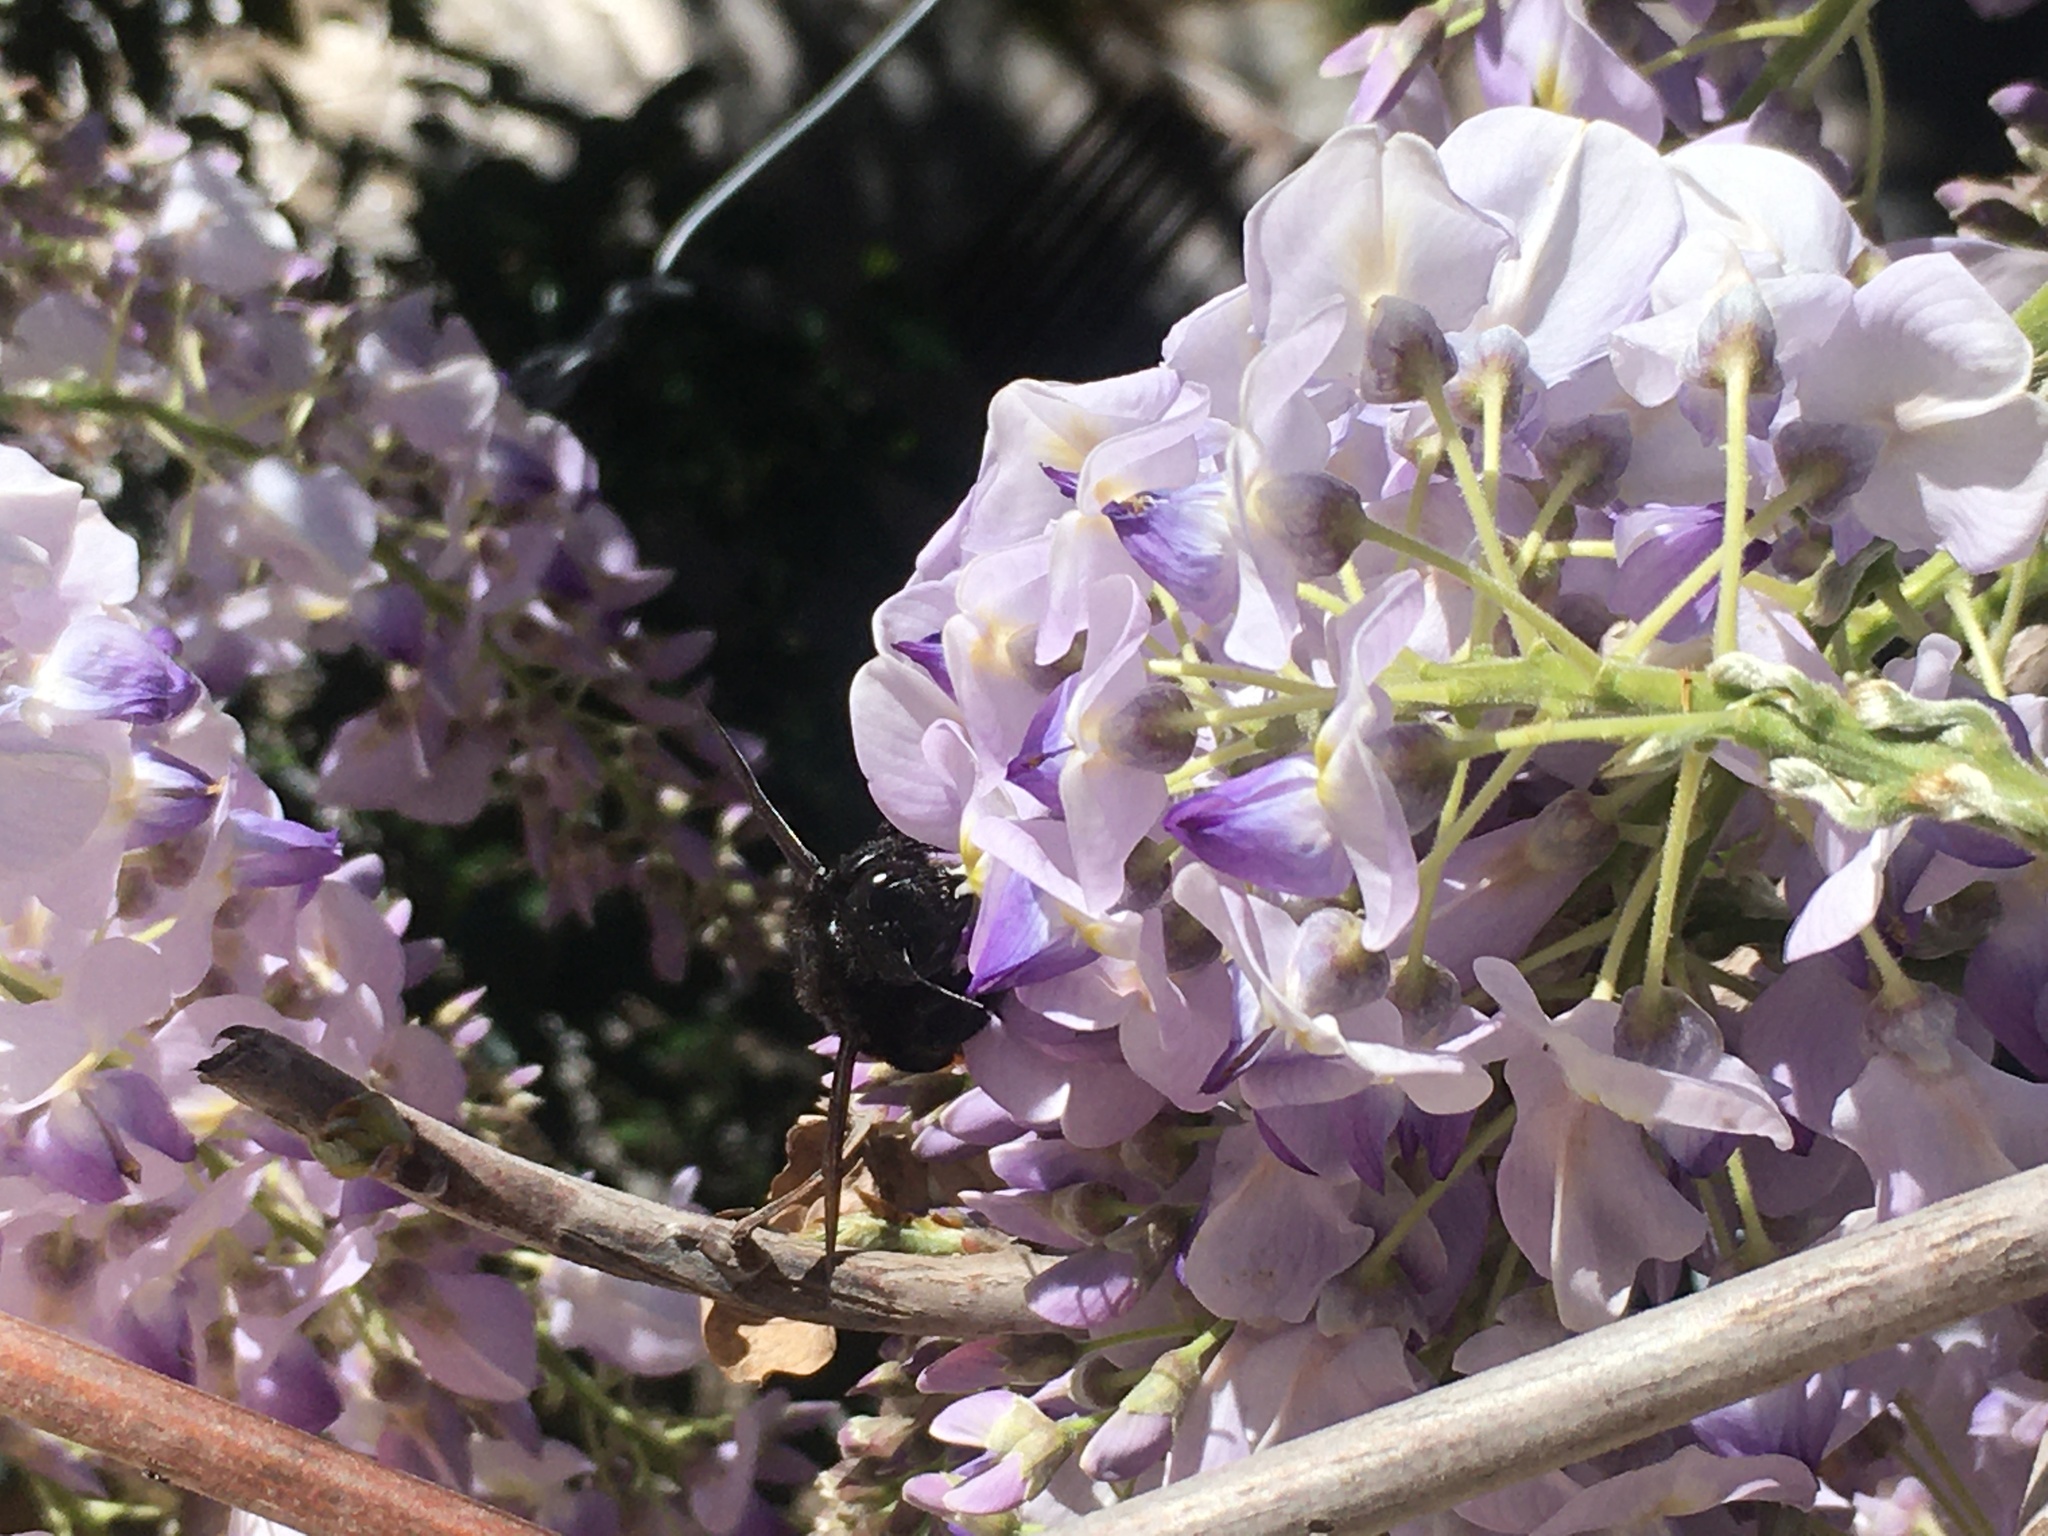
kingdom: Animalia
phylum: Arthropoda
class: Insecta
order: Hymenoptera
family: Apidae
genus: Xylocopa
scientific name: Xylocopa augusti
